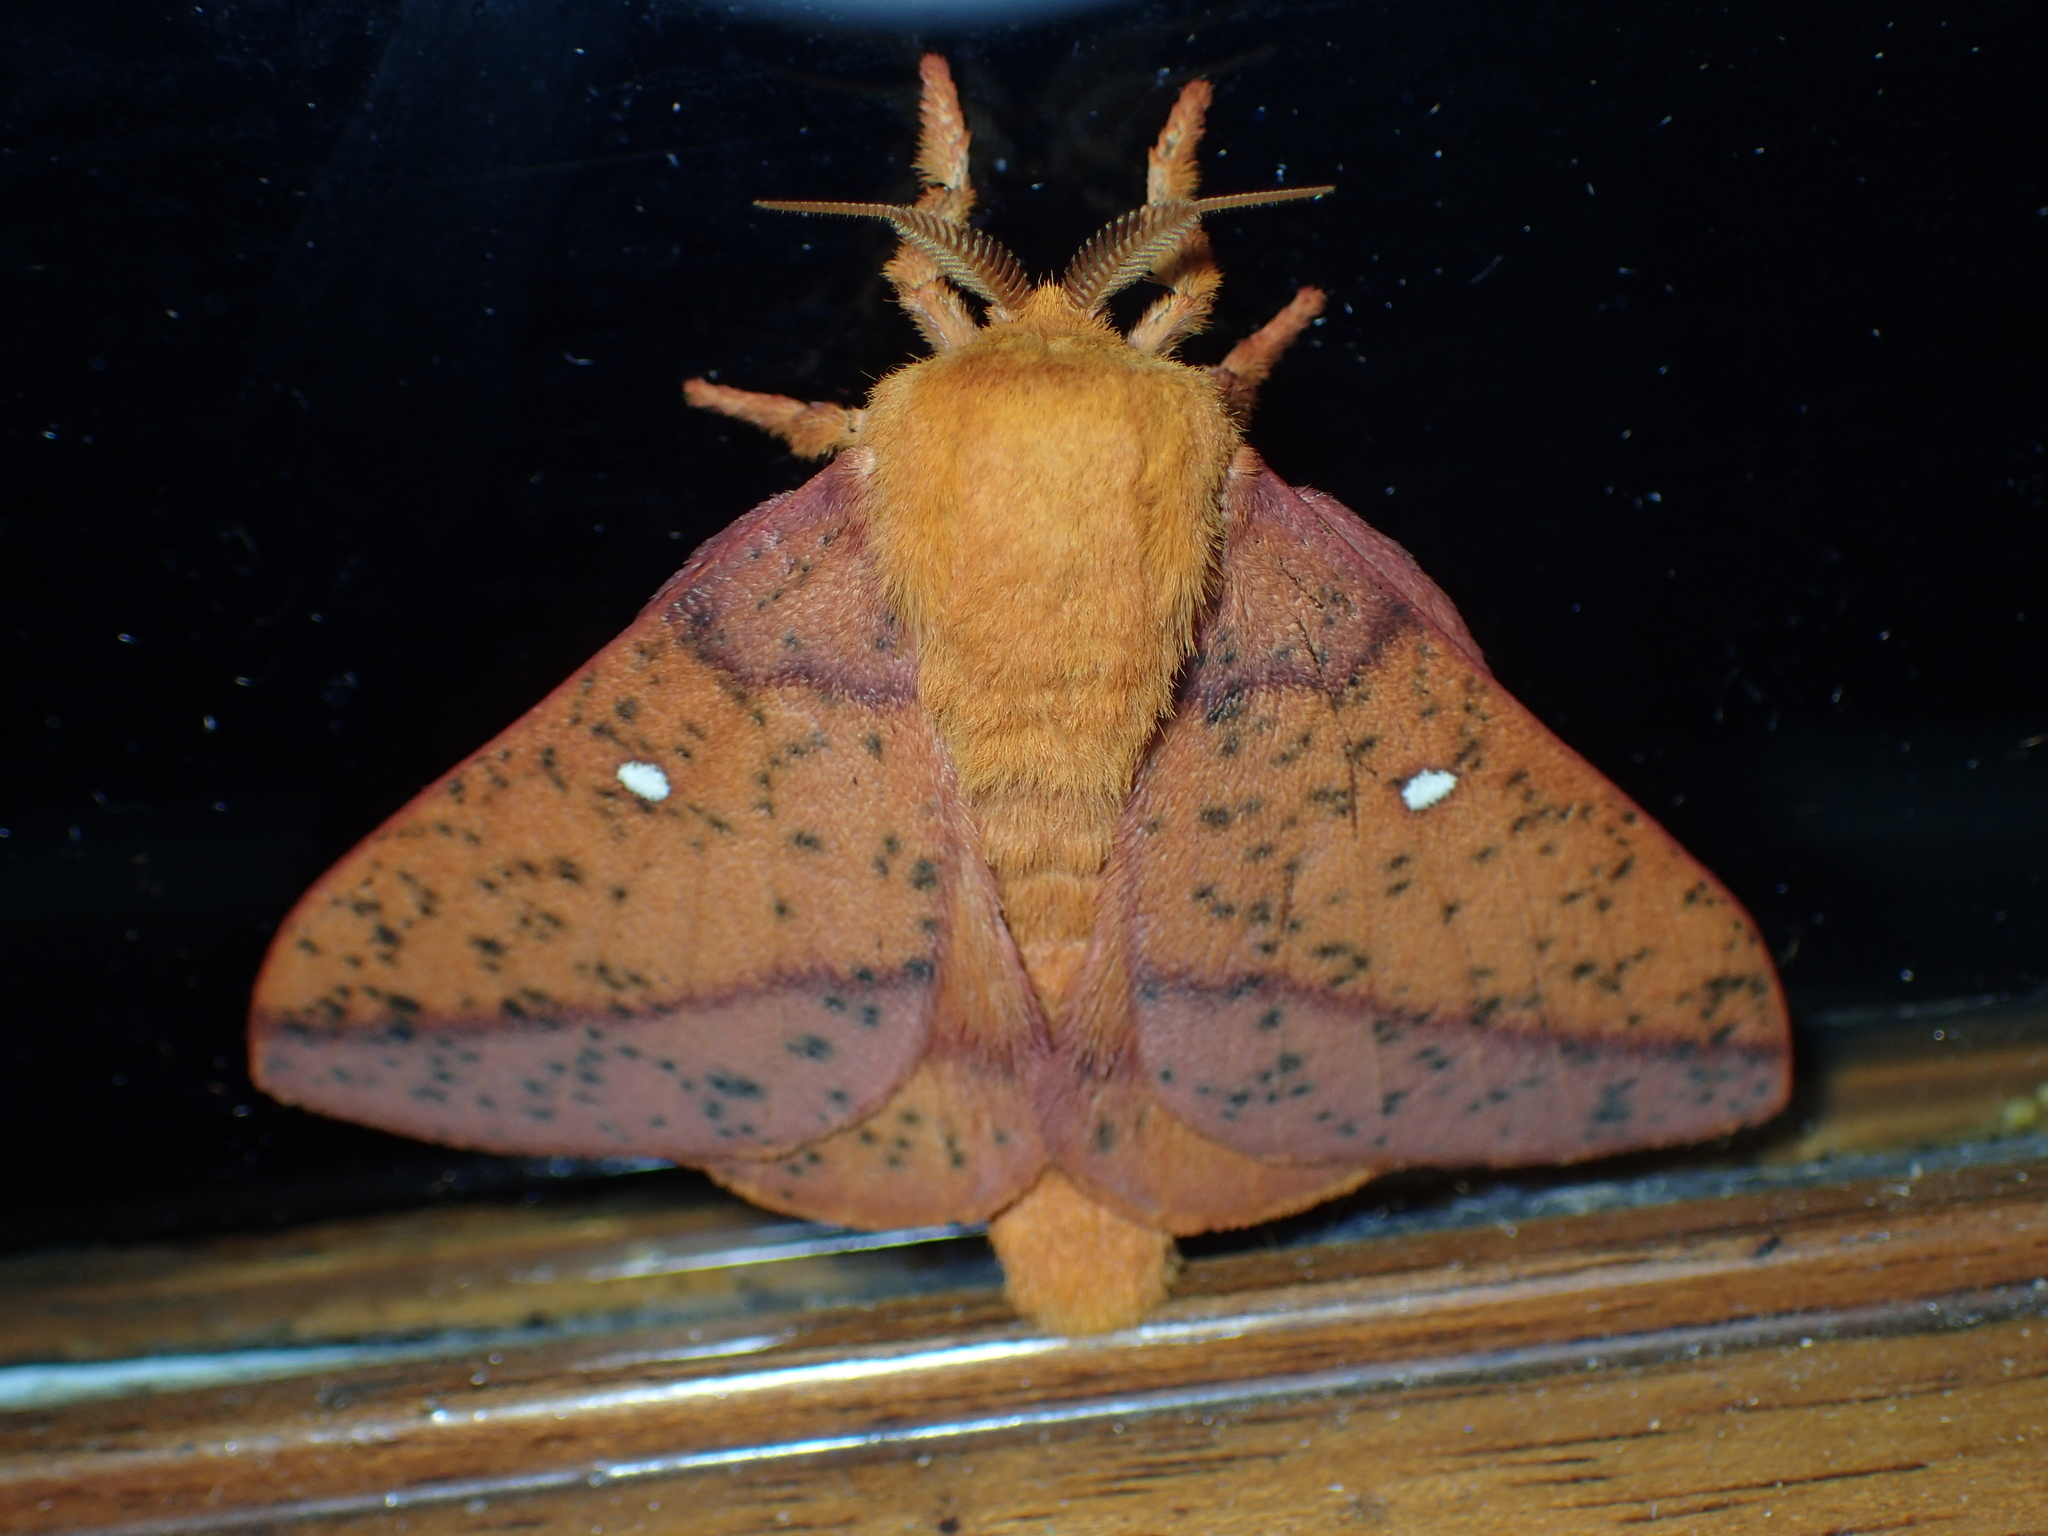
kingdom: Animalia
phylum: Arthropoda
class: Insecta
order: Lepidoptera
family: Saturniidae
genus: Anisota
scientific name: Anisota stigma
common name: Spiny oakworm moth
